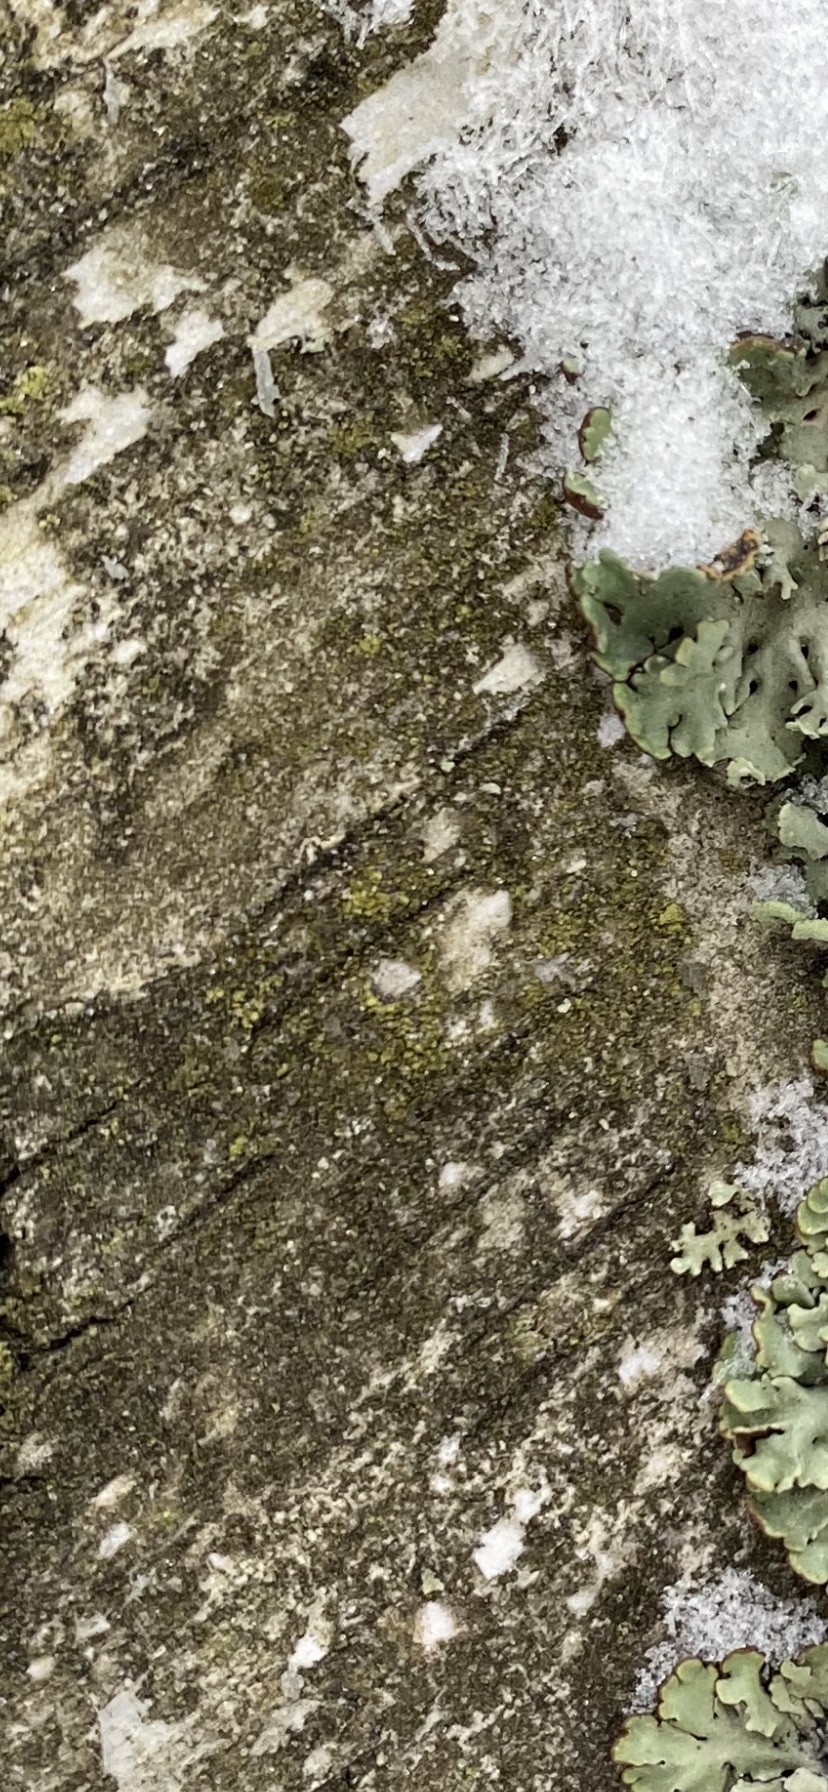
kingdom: Fungi
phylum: Ascomycota
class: Lecanoromycetes
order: Lecanorales
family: Parmeliaceae
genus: Hypogymnia
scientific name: Hypogymnia physodes
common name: Dark crottle
